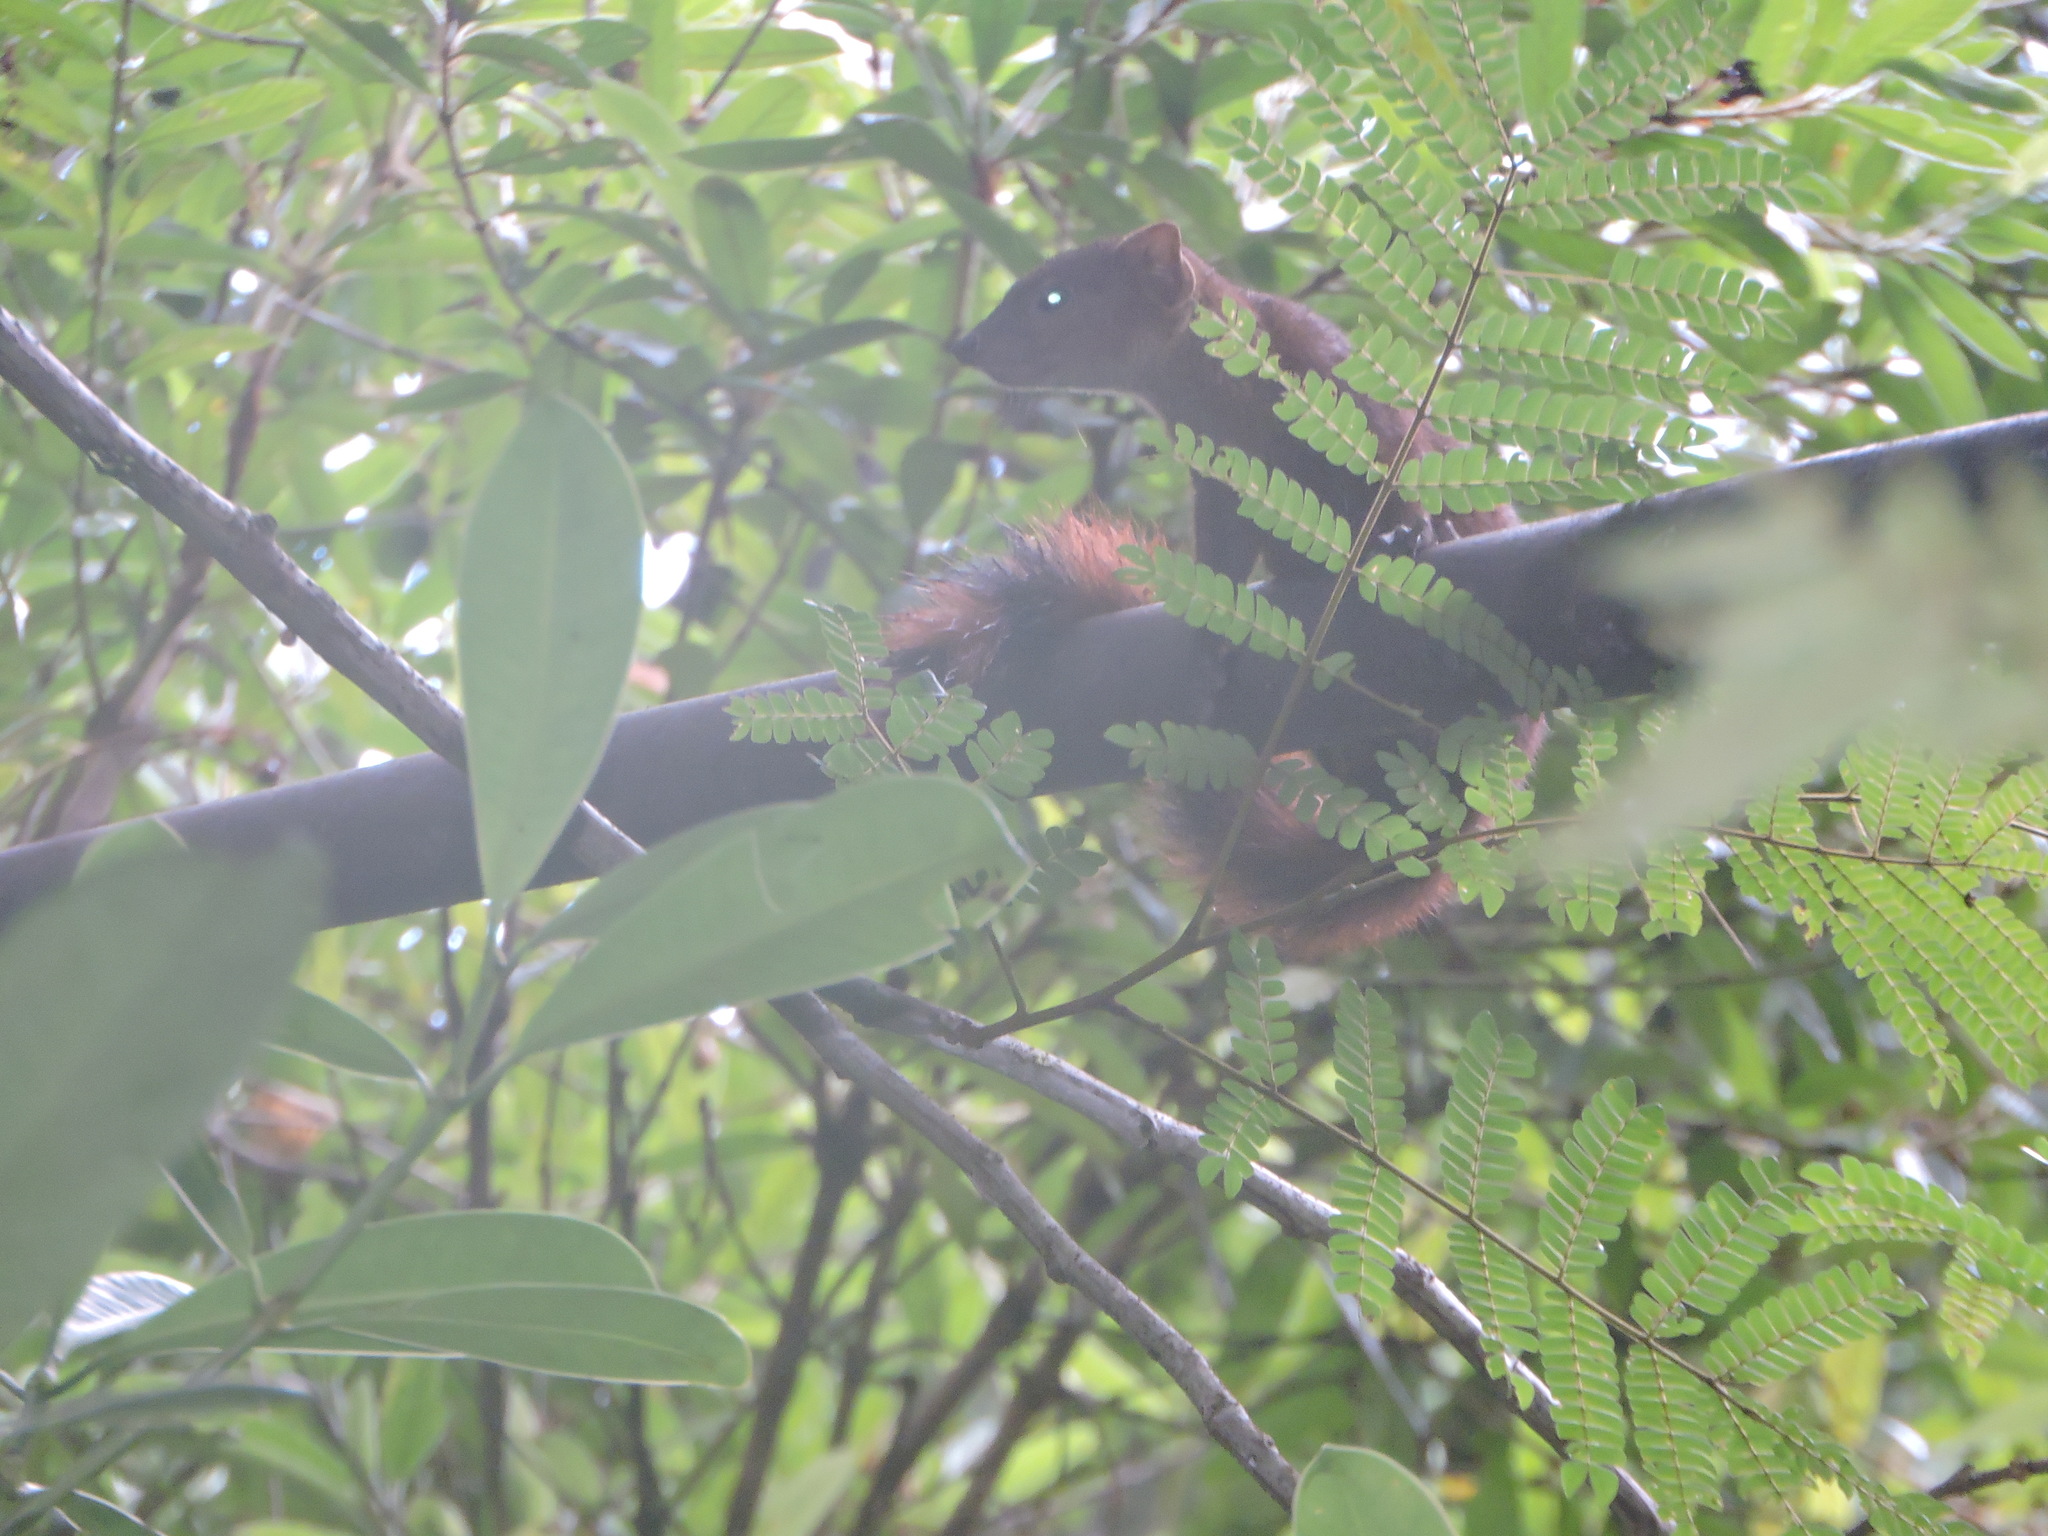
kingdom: Animalia
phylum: Chordata
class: Mammalia
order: Carnivora
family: Eupleridae
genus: Galidia
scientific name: Galidia elegans
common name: Ring-tailed mongoose
